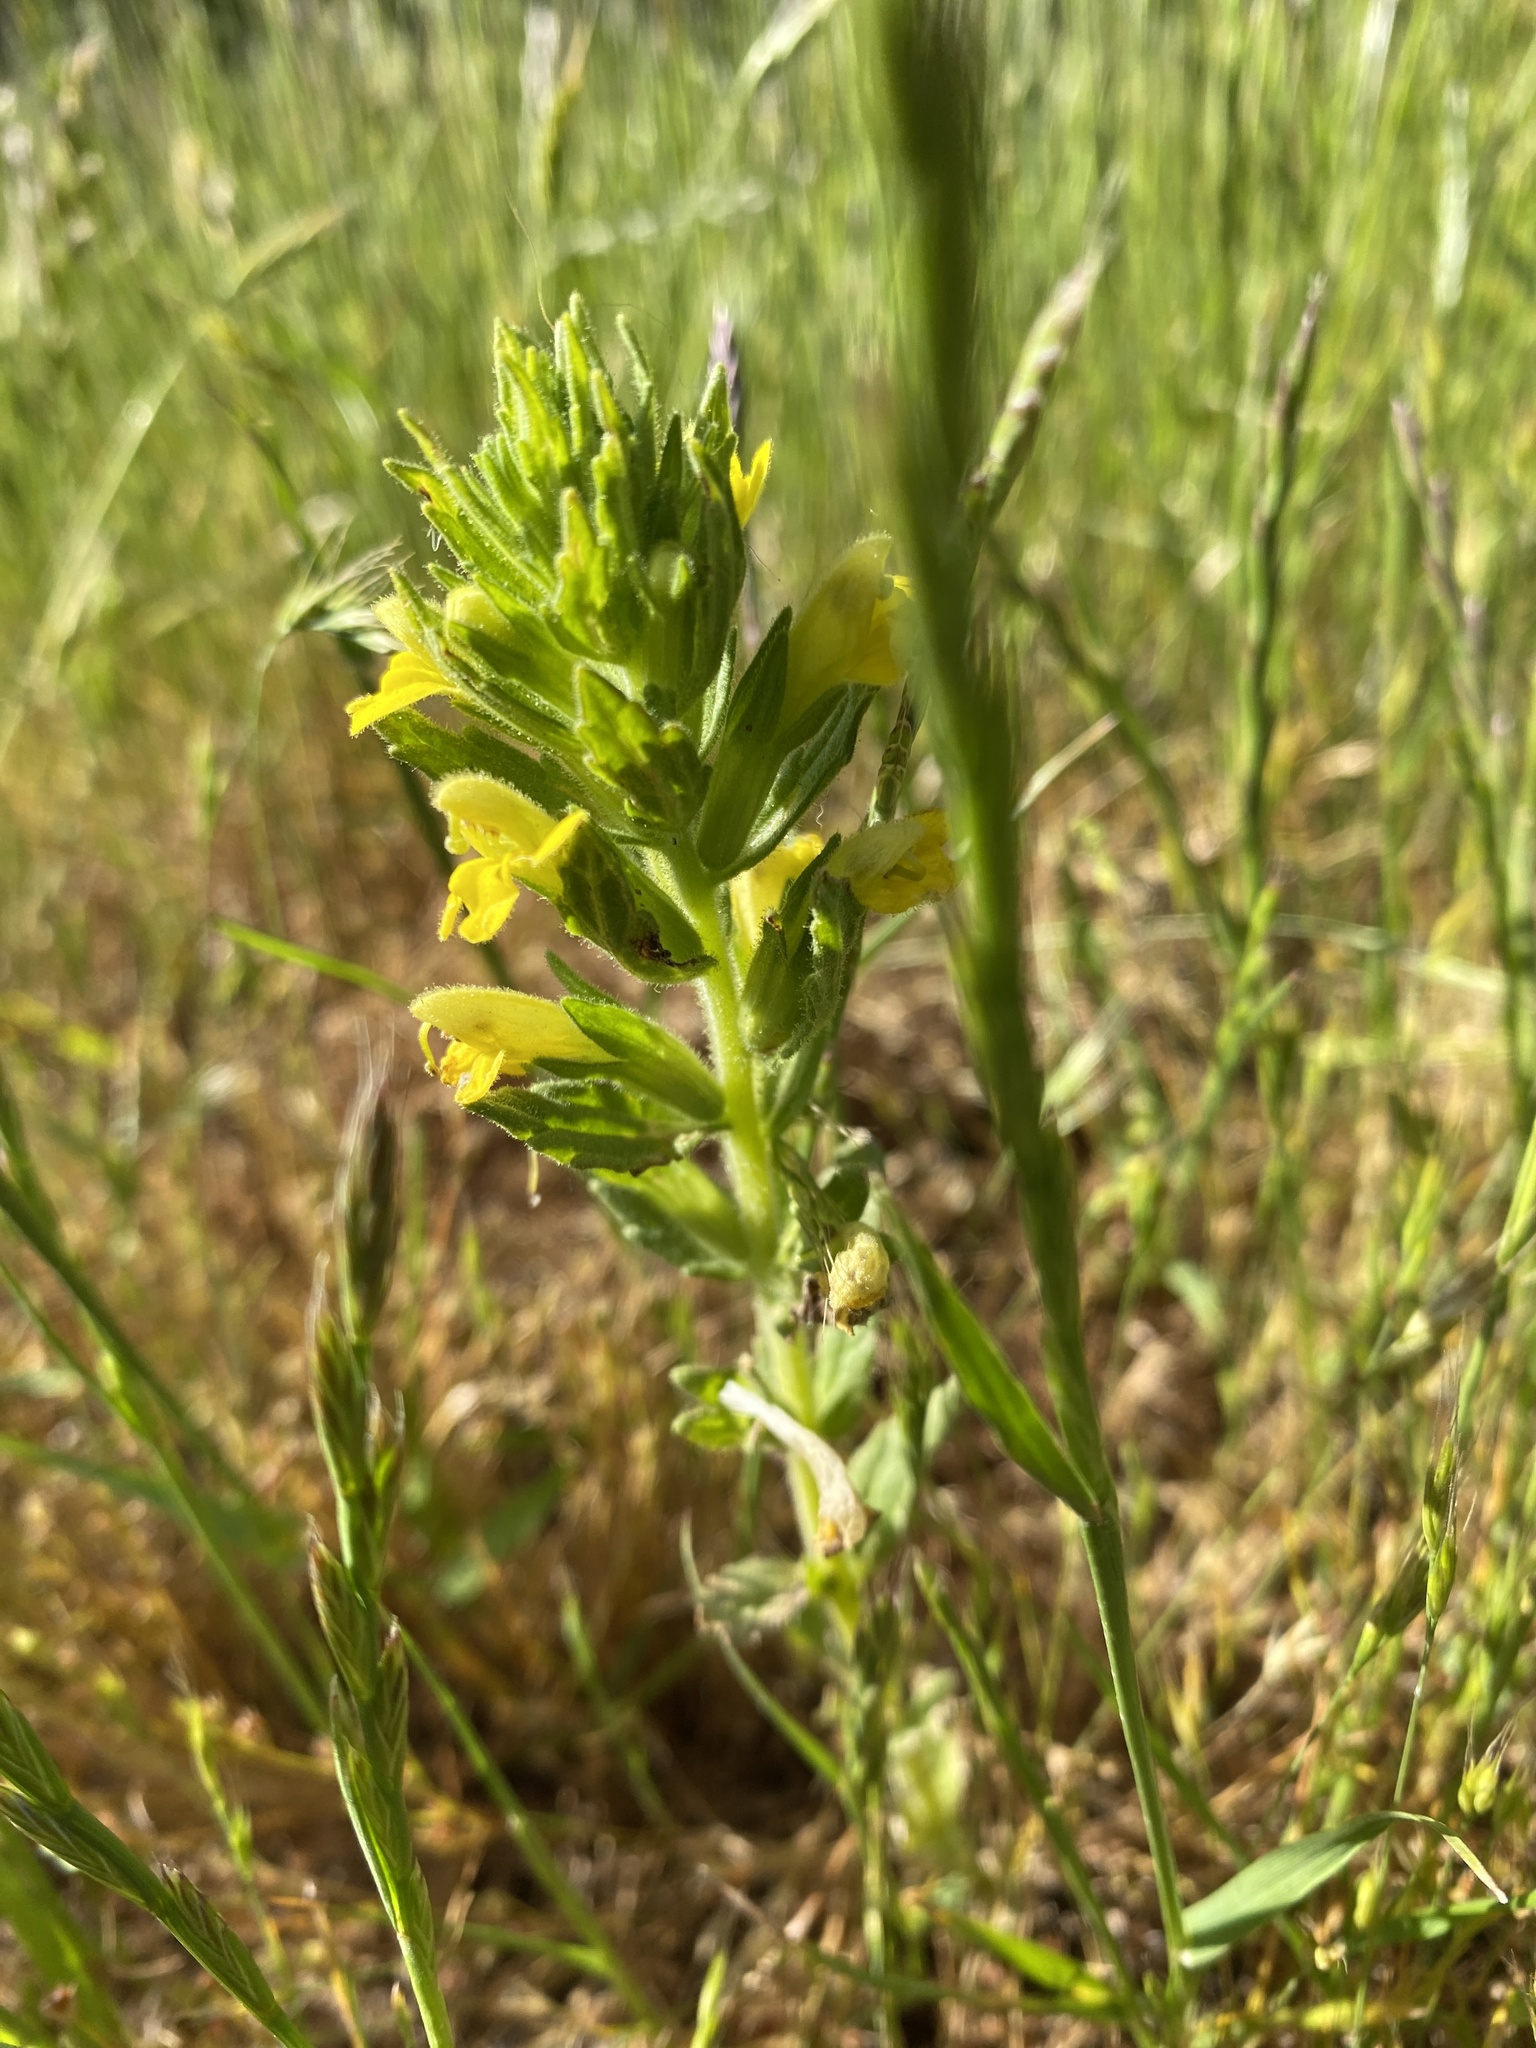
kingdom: Plantae
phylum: Tracheophyta
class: Magnoliopsida
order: Lamiales
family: Orobanchaceae
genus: Bellardia
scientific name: Bellardia viscosa
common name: Sticky parentucellia
